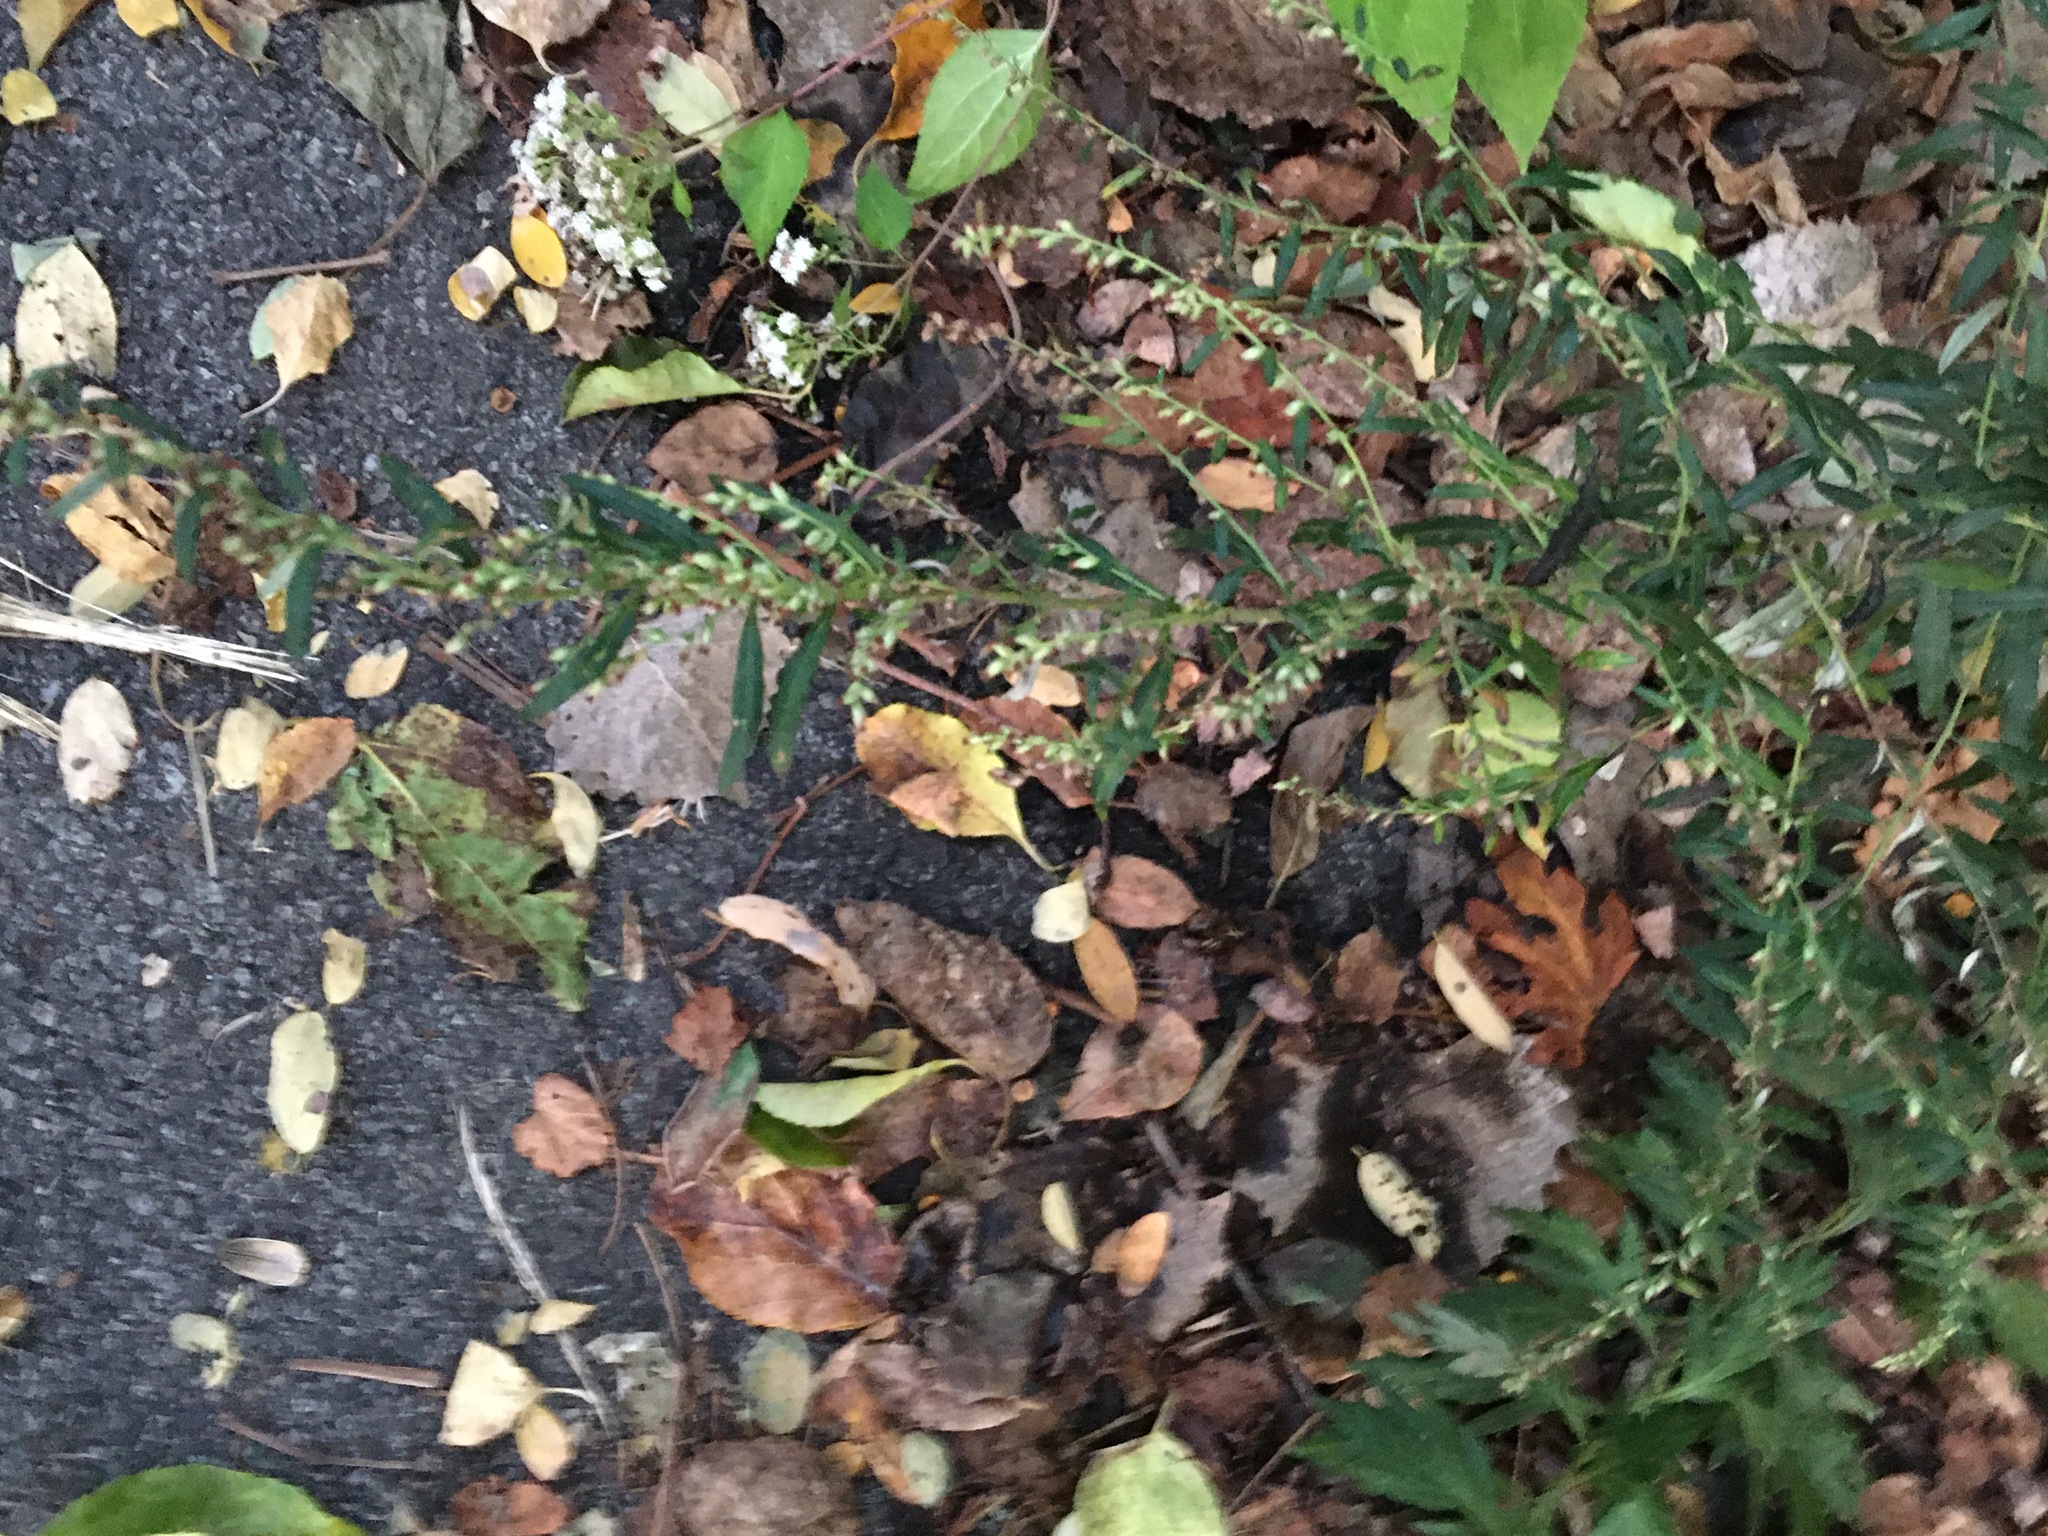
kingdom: Plantae
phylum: Tracheophyta
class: Magnoliopsida
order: Asterales
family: Asteraceae
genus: Artemisia
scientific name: Artemisia vulgaris
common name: Mugwort
